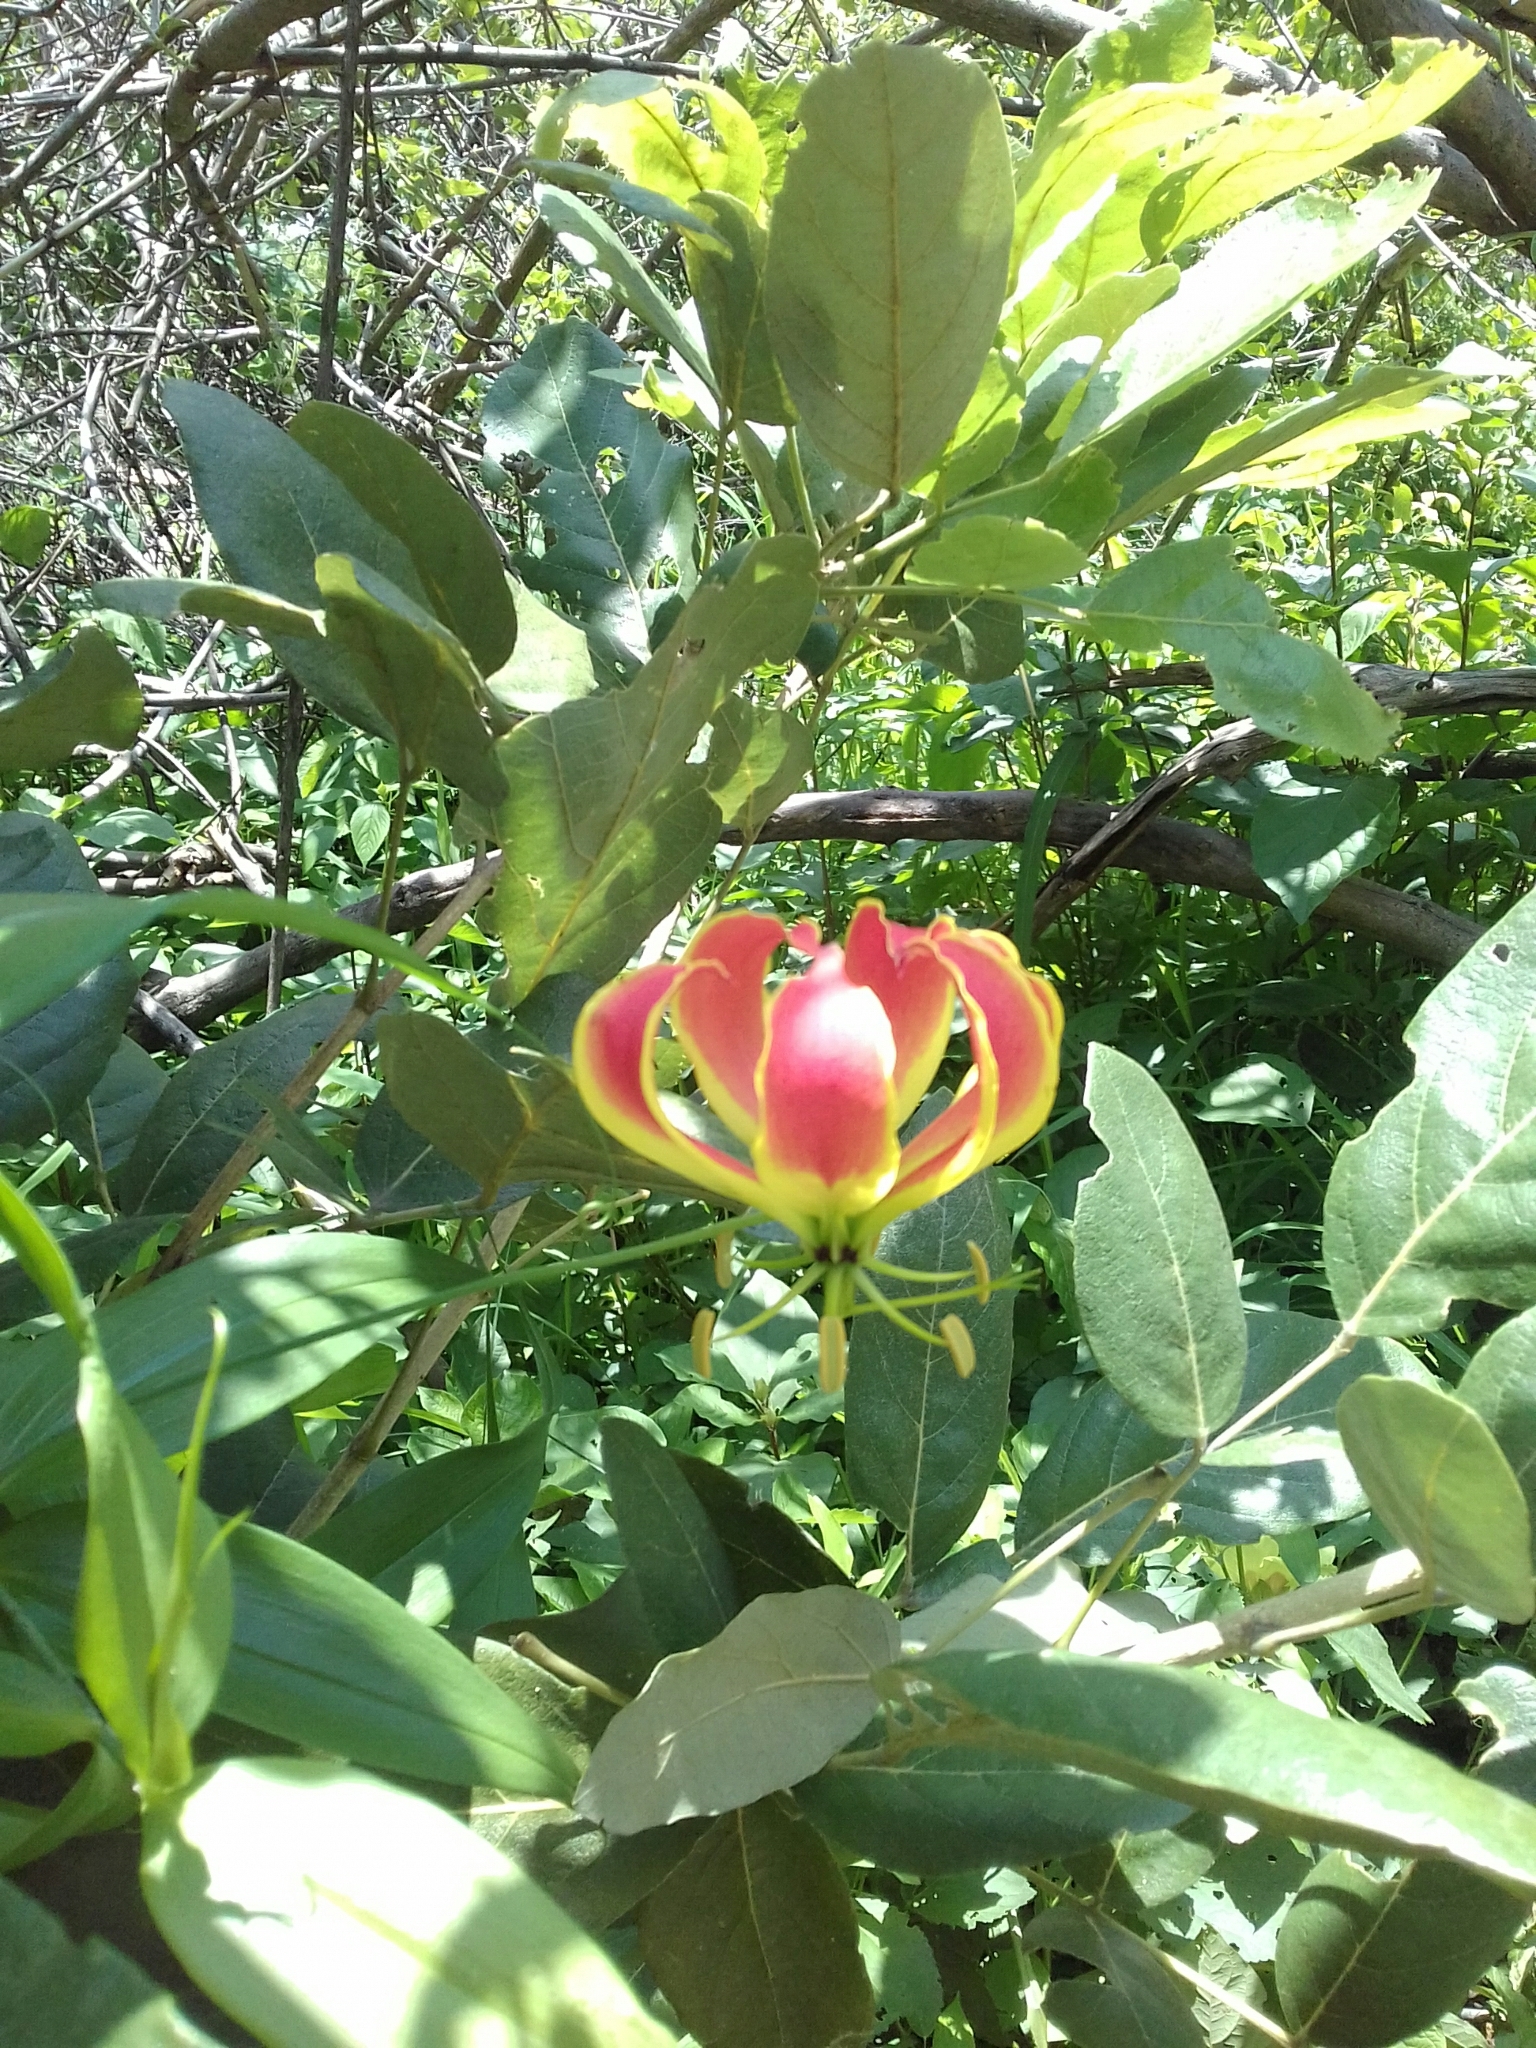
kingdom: Plantae
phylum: Tracheophyta
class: Liliopsida
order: Liliales
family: Colchicaceae
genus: Gloriosa
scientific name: Gloriosa superba
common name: Flame lily
